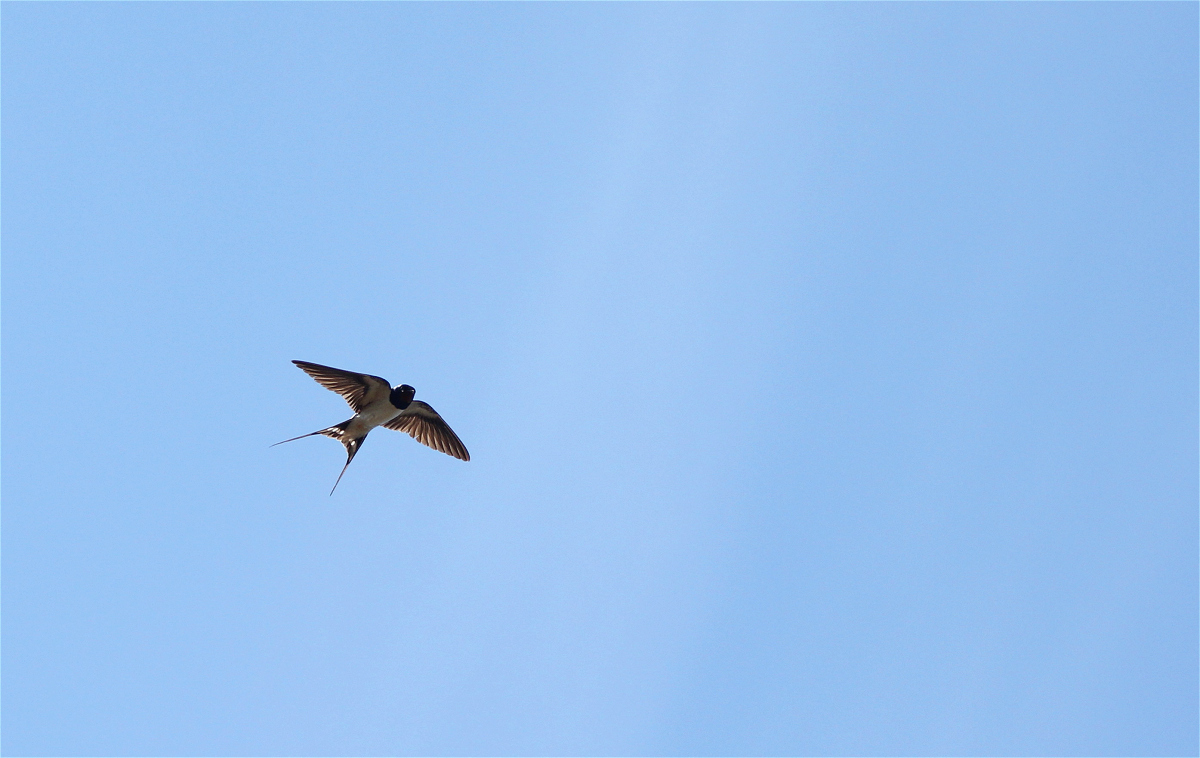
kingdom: Animalia
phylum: Chordata
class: Aves
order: Passeriformes
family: Hirundinidae
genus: Hirundo
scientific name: Hirundo rustica
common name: Barn swallow
